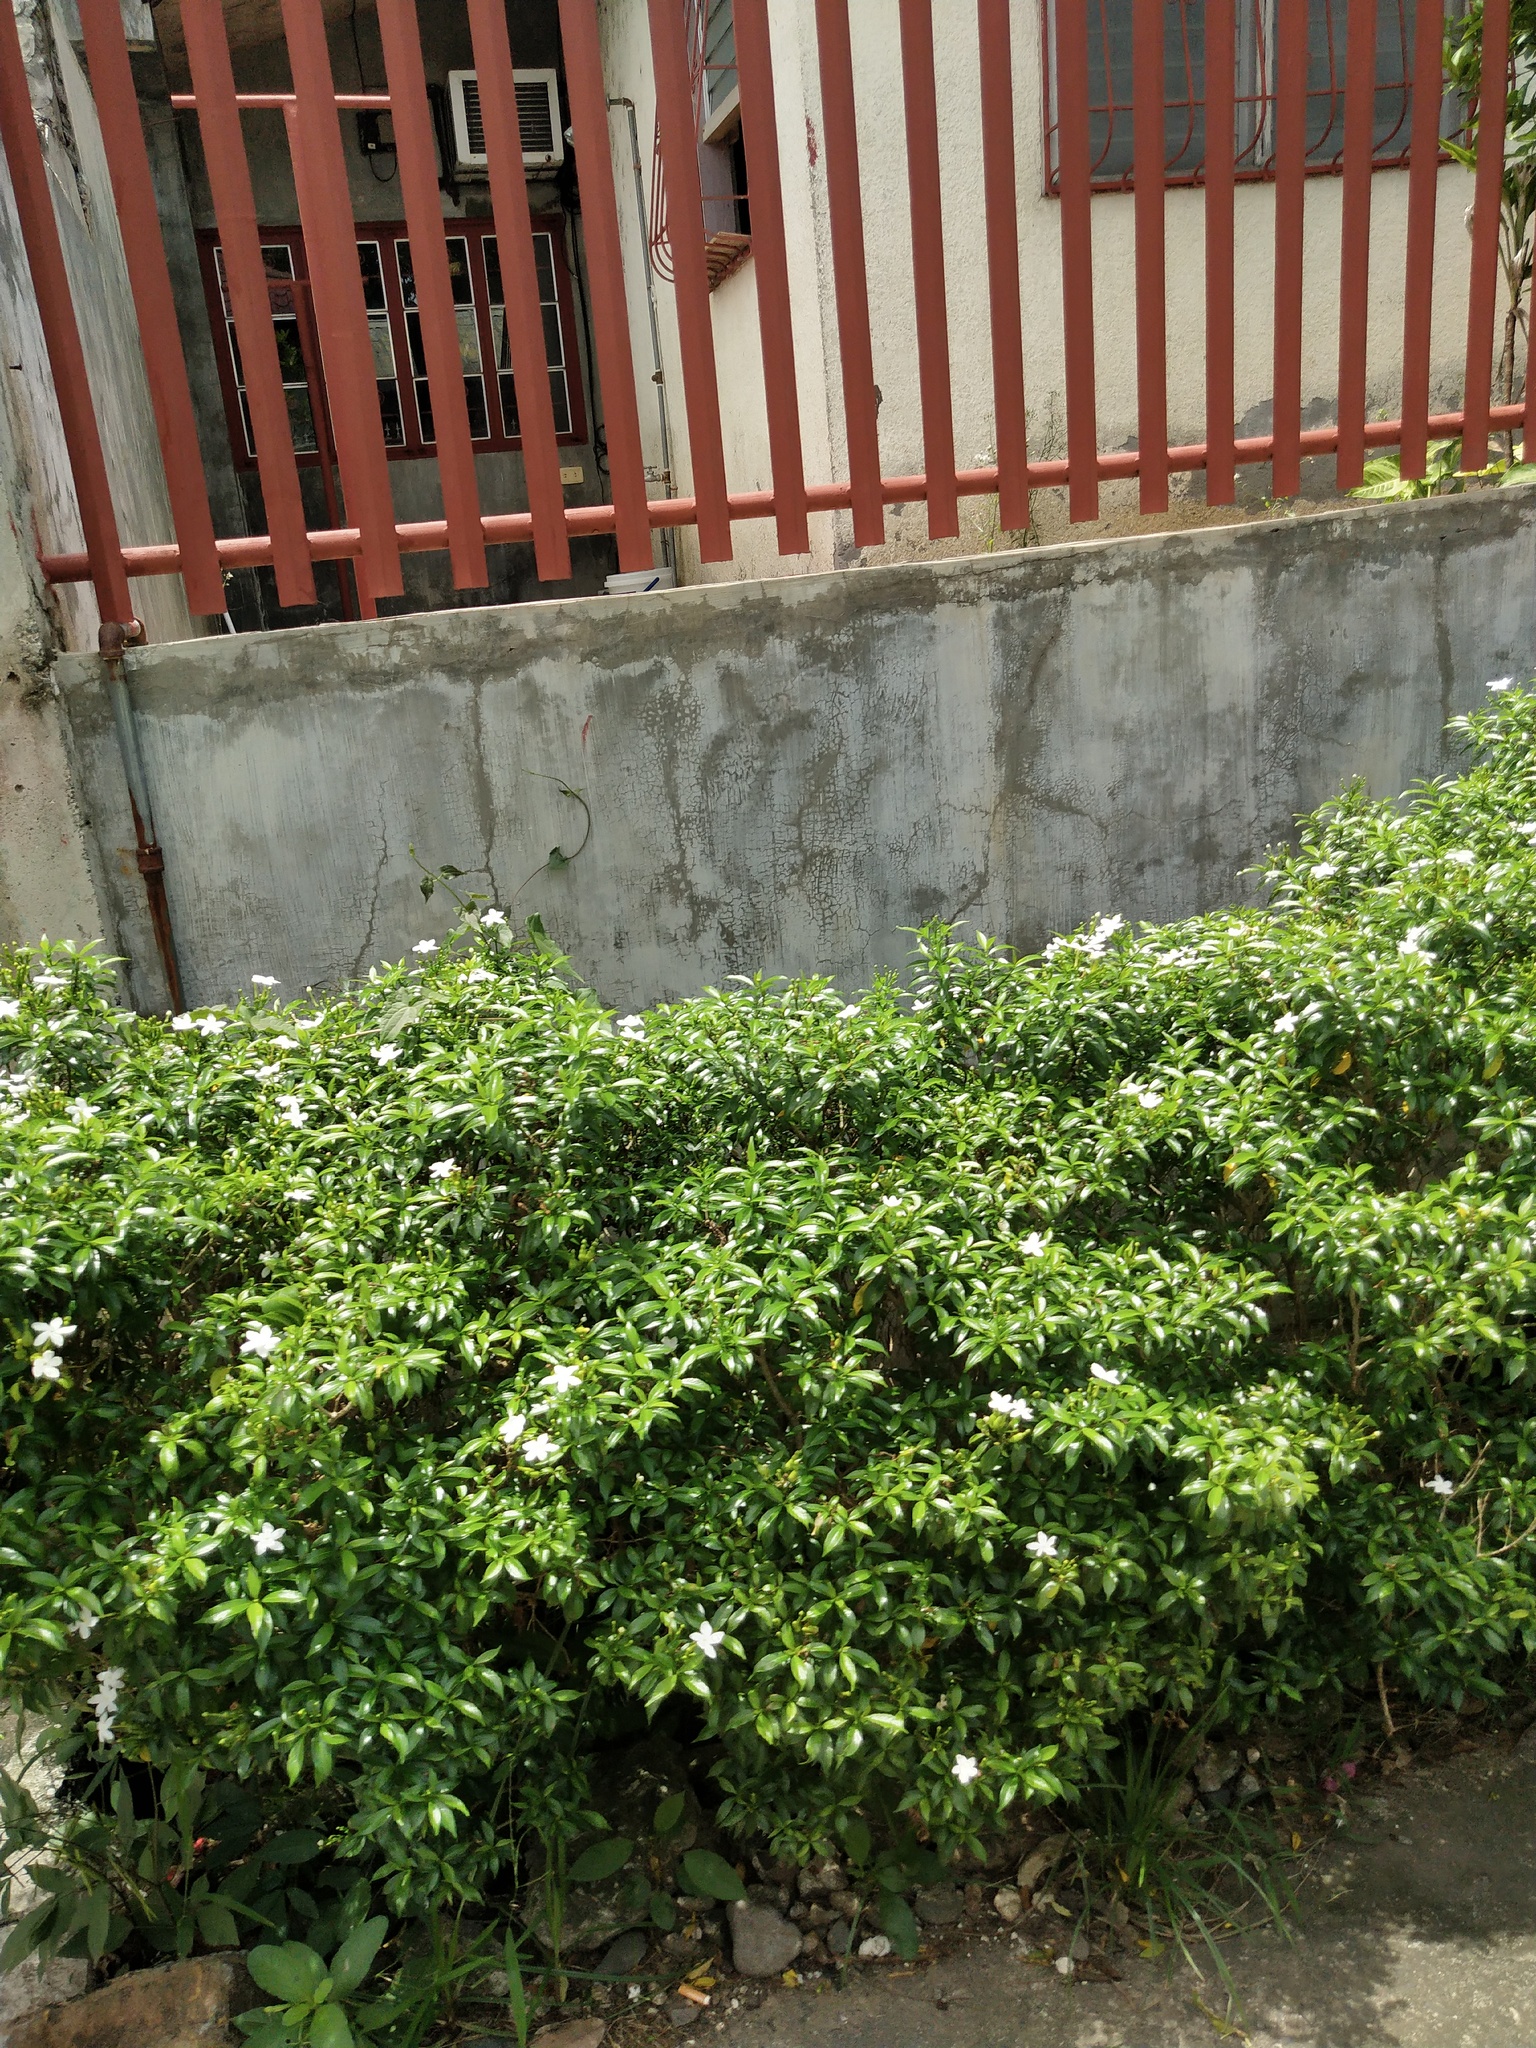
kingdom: Plantae
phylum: Tracheophyta
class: Magnoliopsida
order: Gentianales
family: Apocynaceae
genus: Tabernaemontana
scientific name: Tabernaemontana corymbosa
